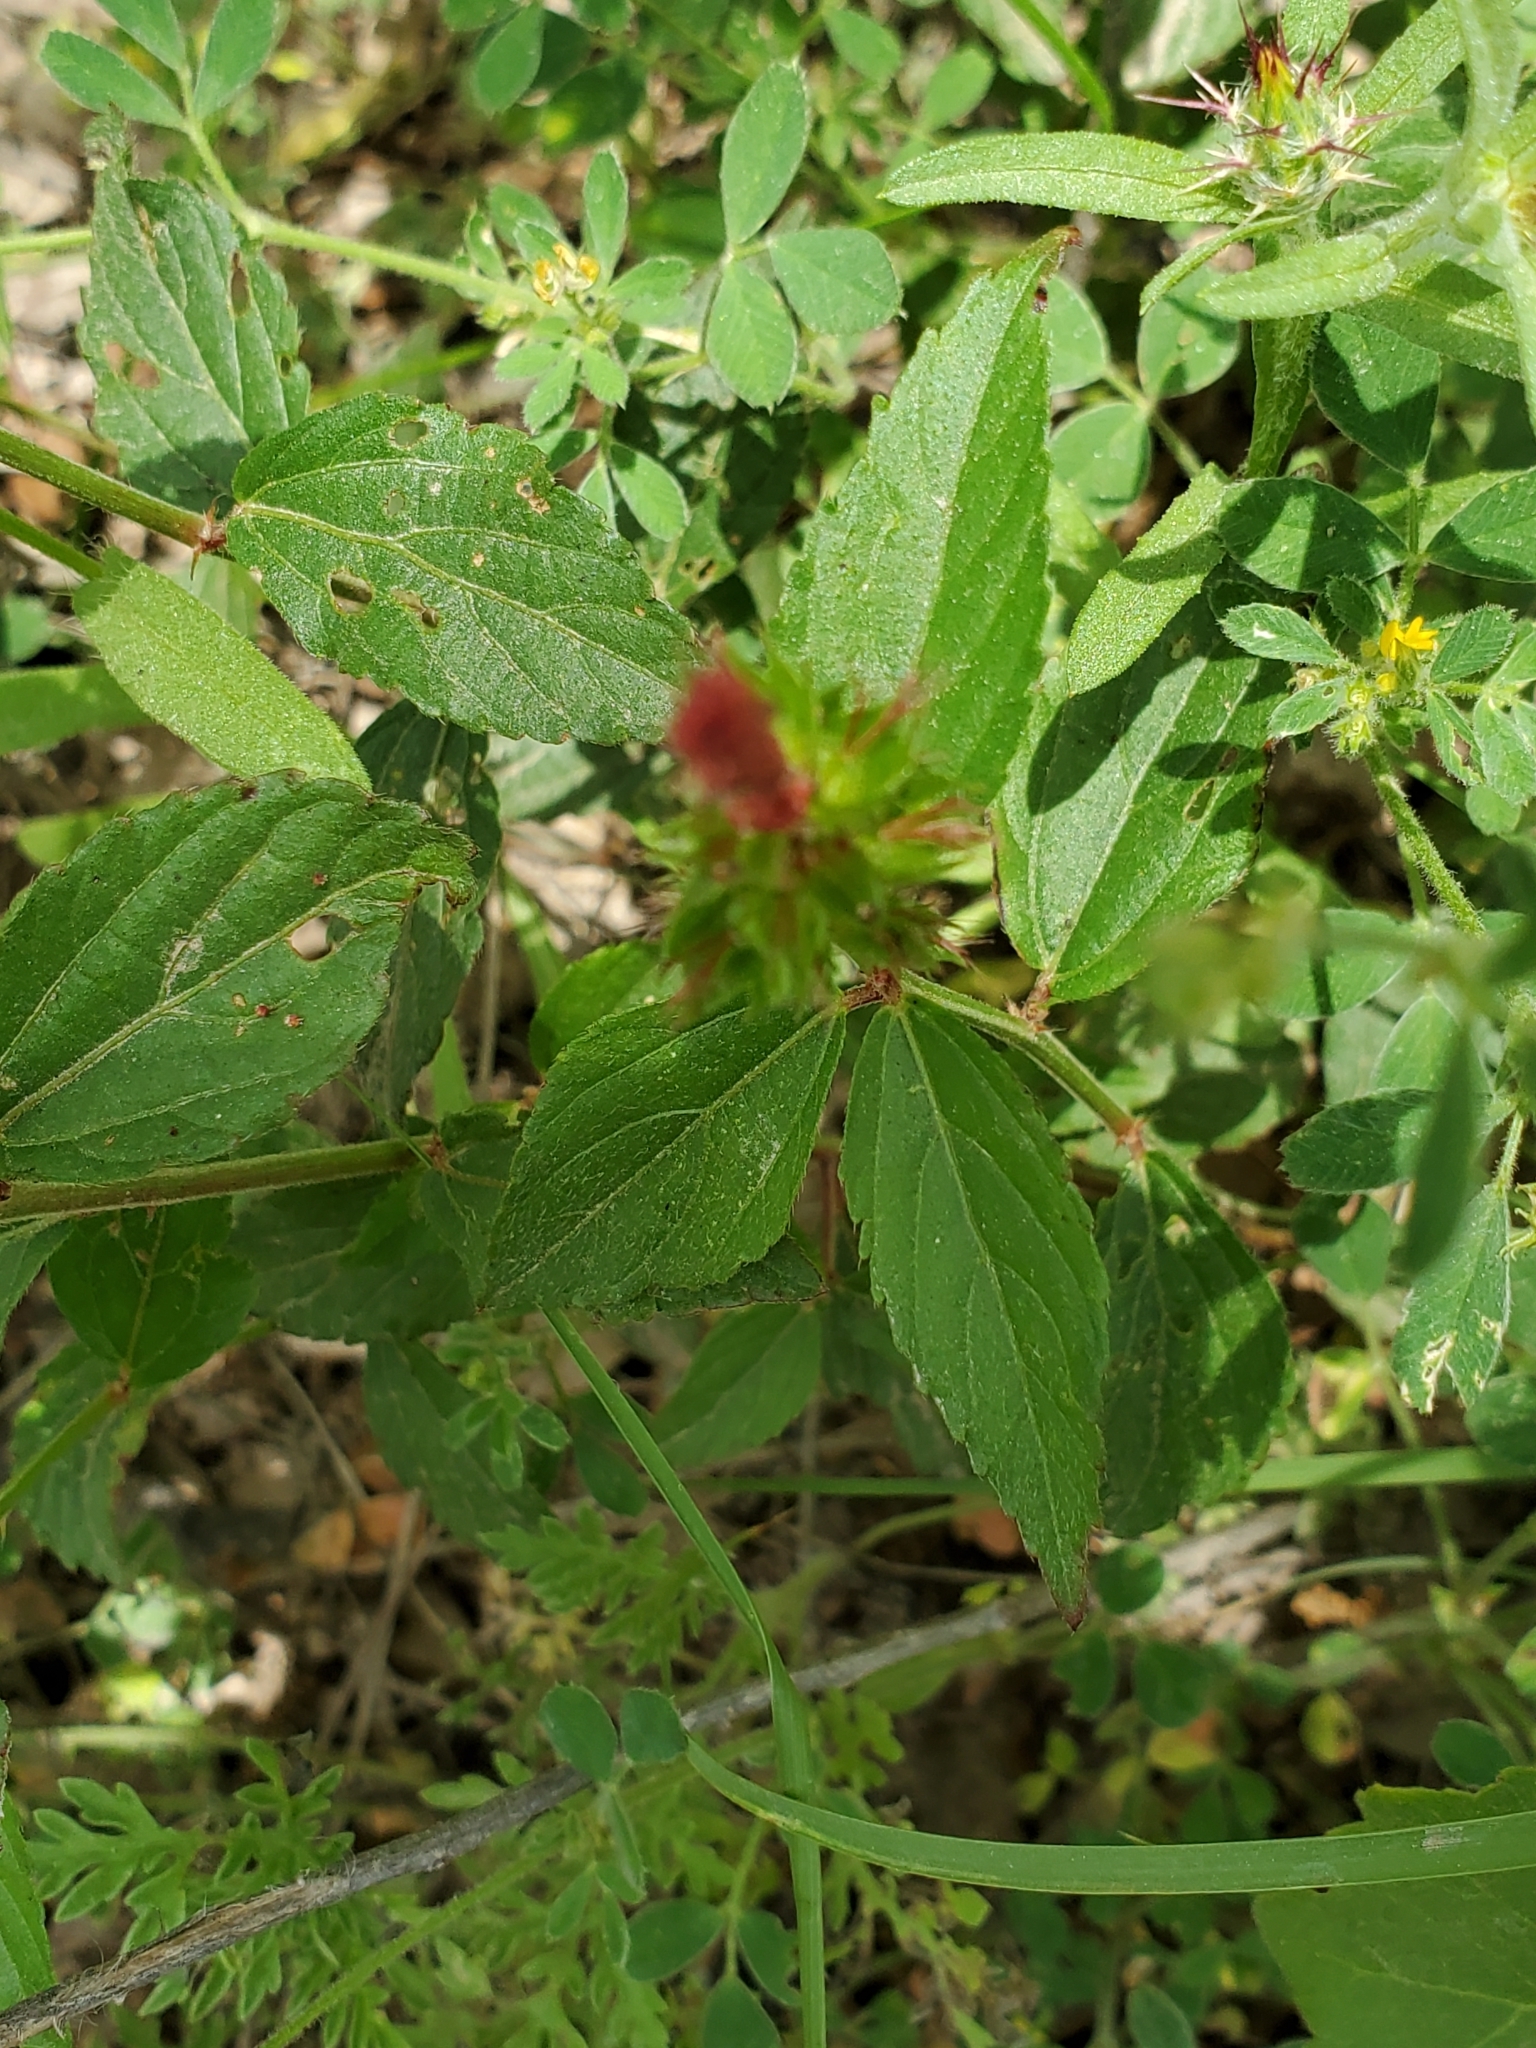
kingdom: Plantae
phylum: Tracheophyta
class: Magnoliopsida
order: Malpighiales
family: Euphorbiaceae
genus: Acalypha
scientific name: Acalypha phleoides
